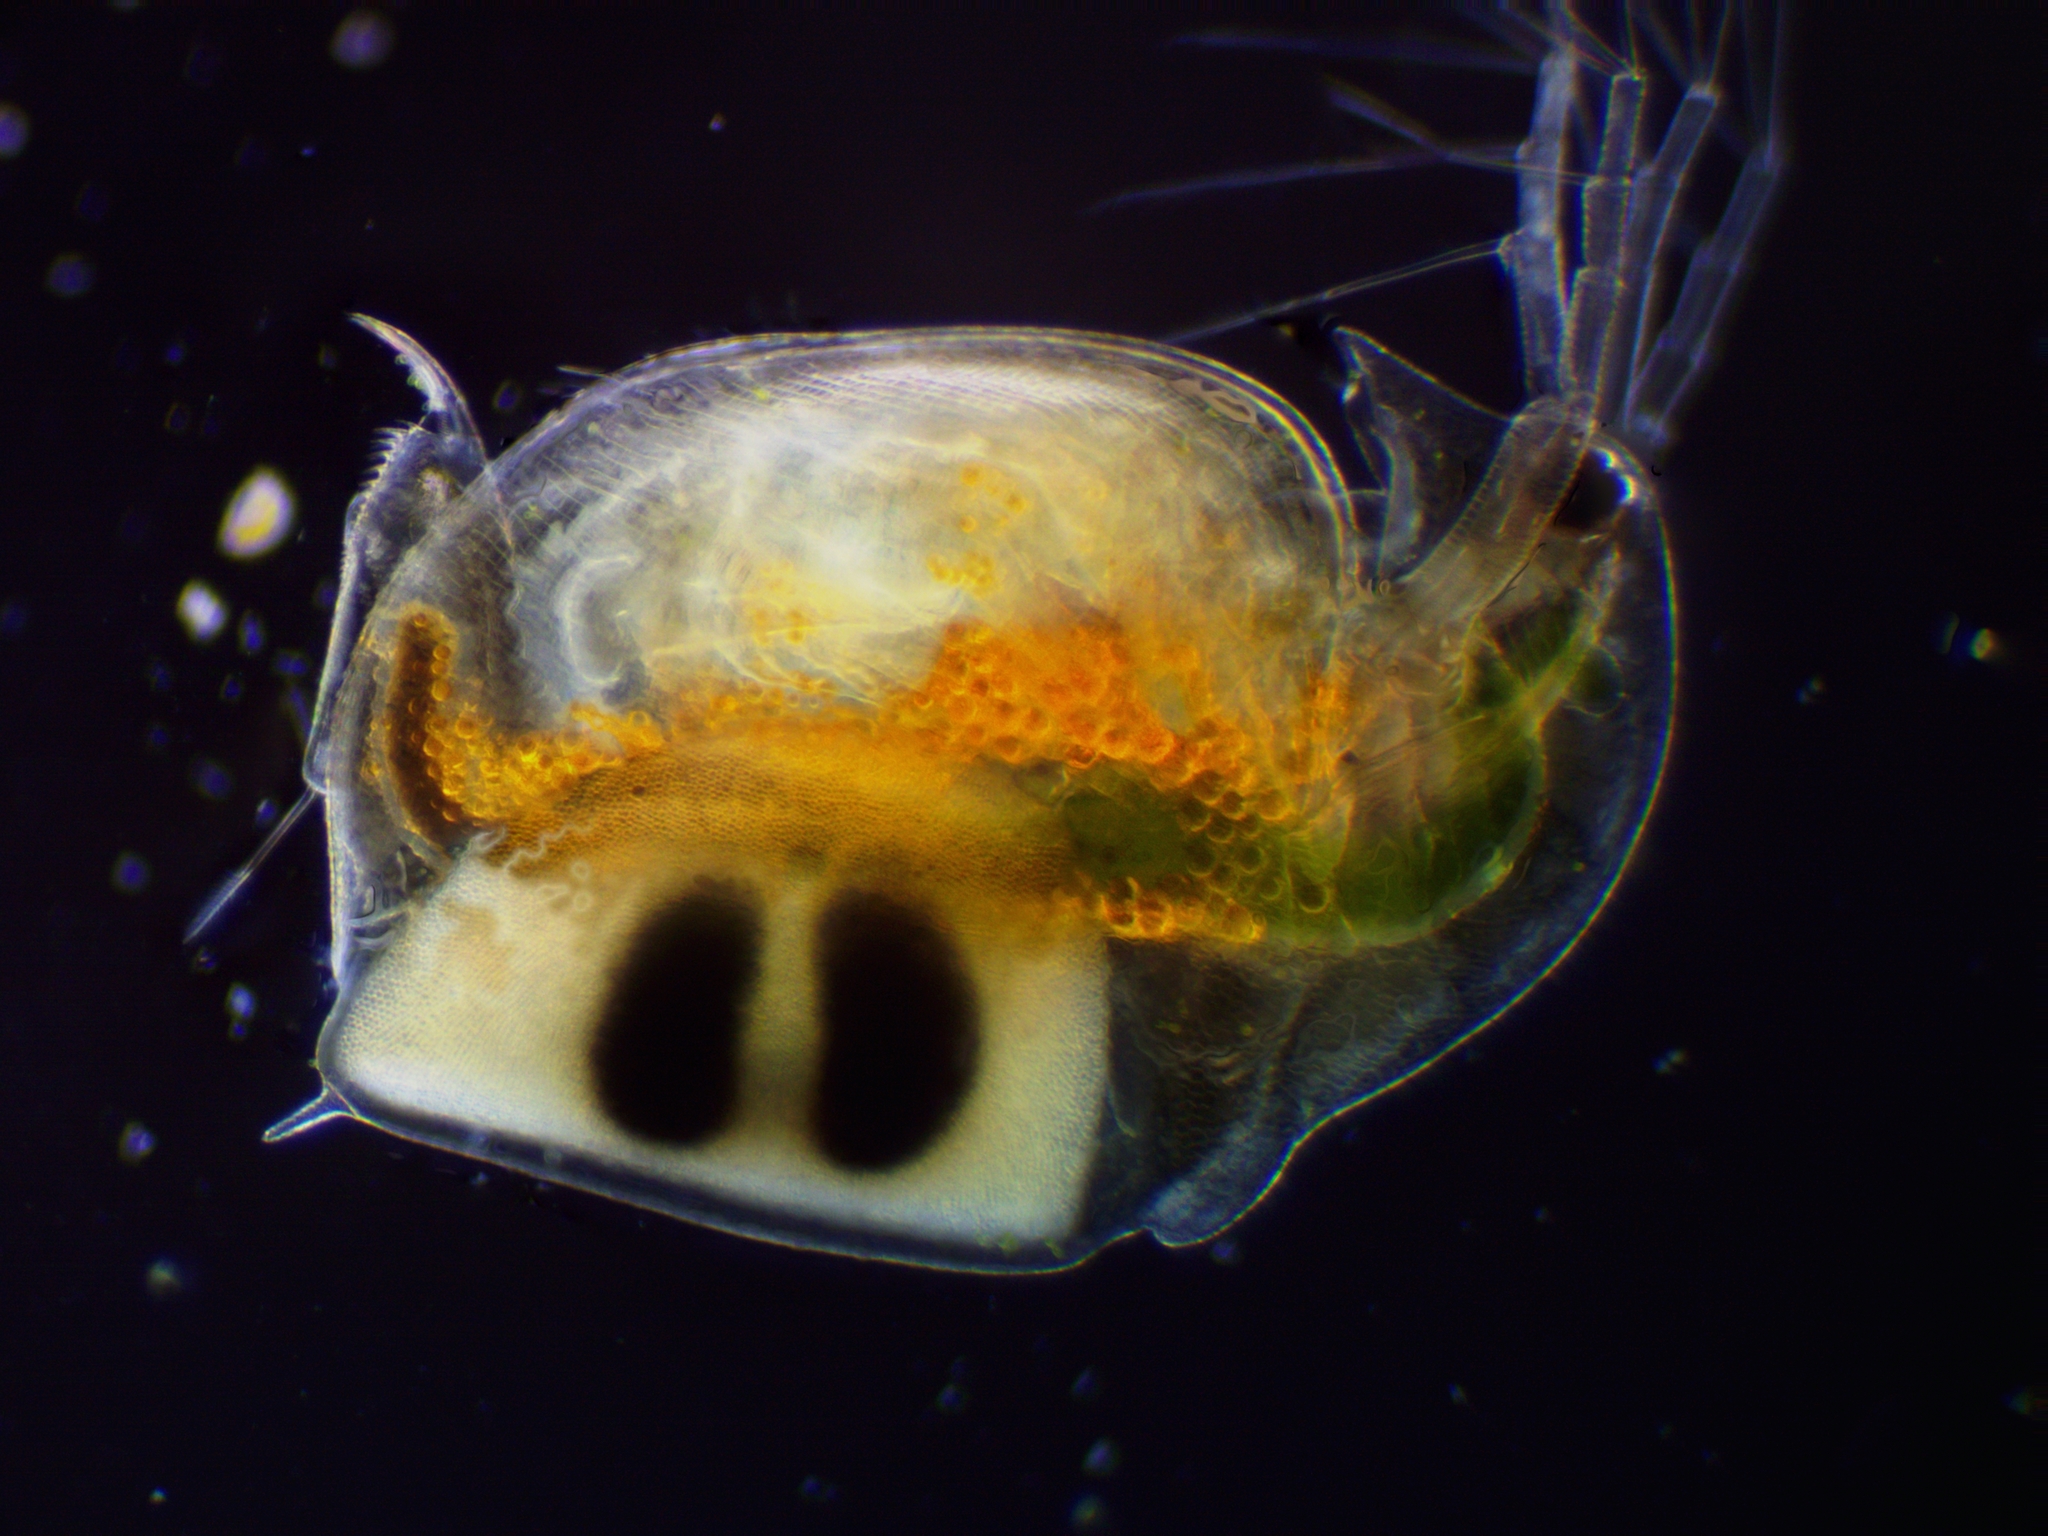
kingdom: Animalia
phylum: Arthropoda
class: Branchiopoda
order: Diplostraca
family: Daphniidae
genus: Daphnia
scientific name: Daphnia pulex
